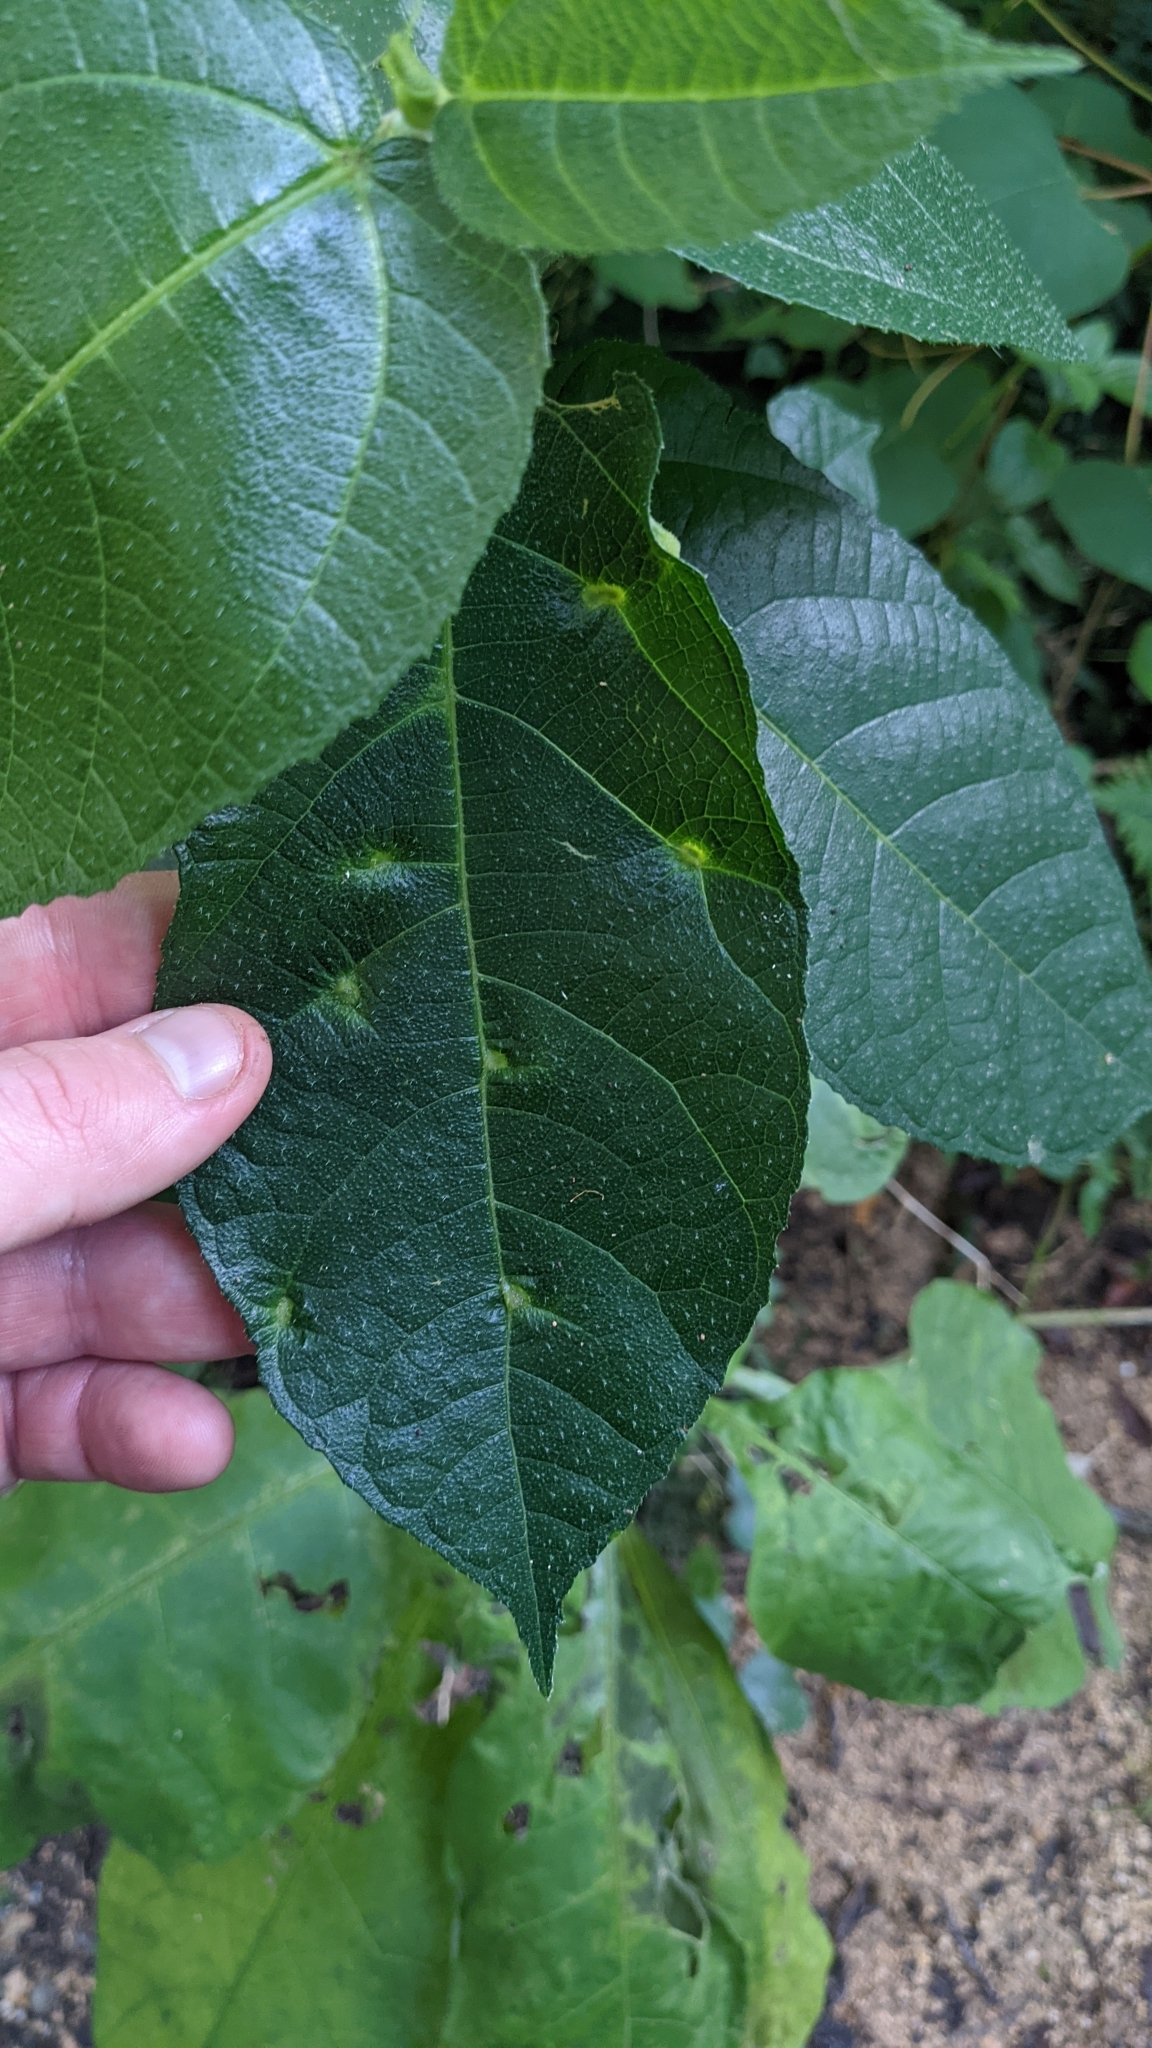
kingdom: Plantae
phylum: Tracheophyta
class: Magnoliopsida
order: Rosales
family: Moraceae
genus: Ficus
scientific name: Ficus coronata
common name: Creek sandpaper fig
